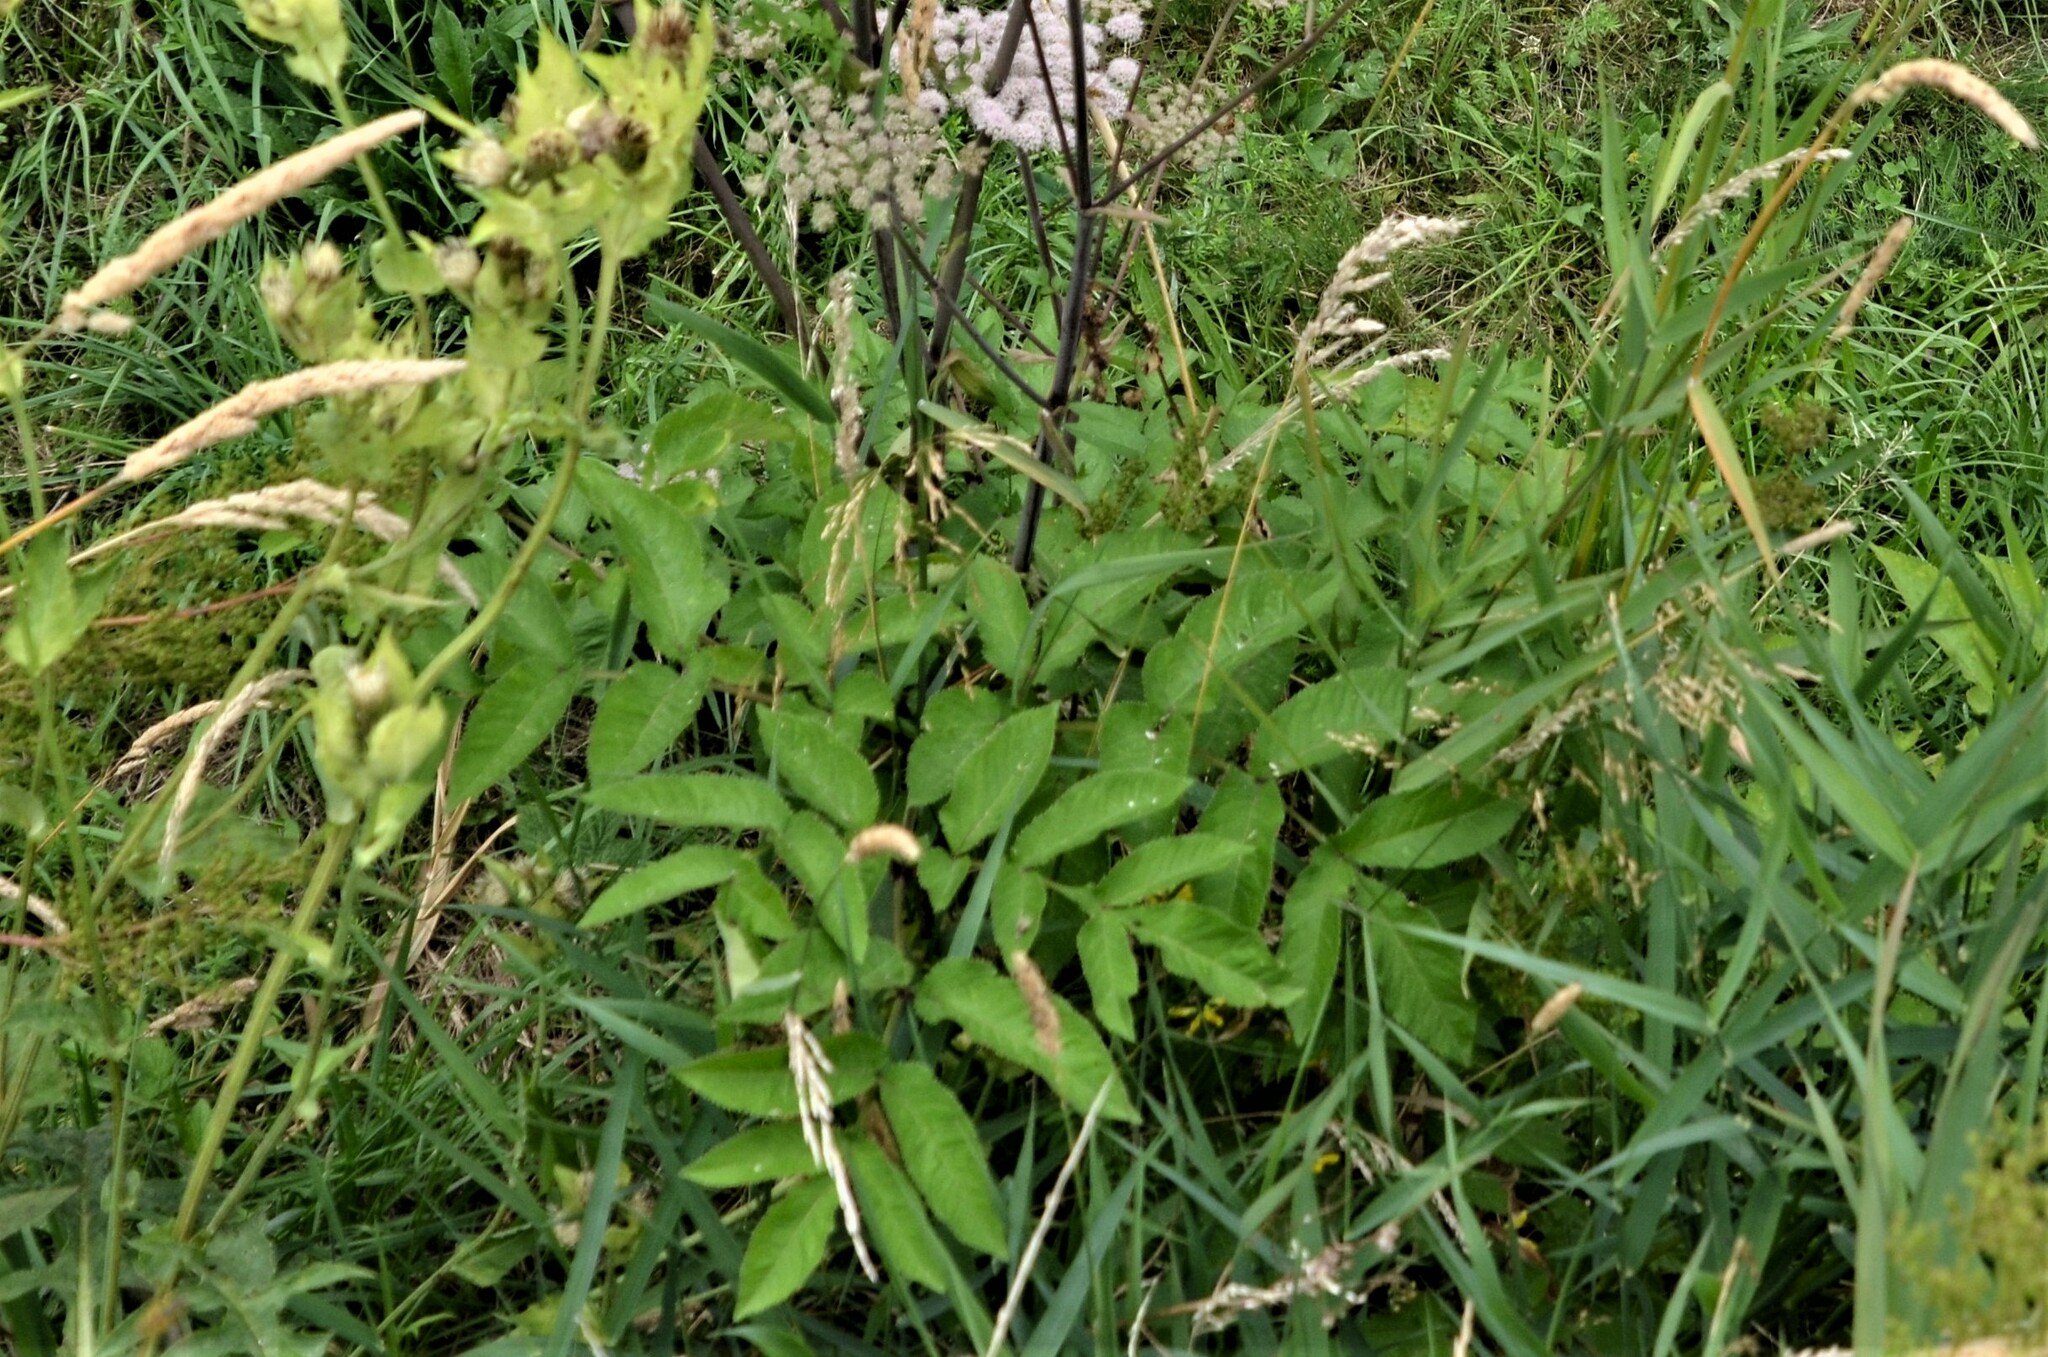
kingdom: Plantae
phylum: Tracheophyta
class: Magnoliopsida
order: Apiales
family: Apiaceae
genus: Angelica
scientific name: Angelica sylvestris
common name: Wild angelica
